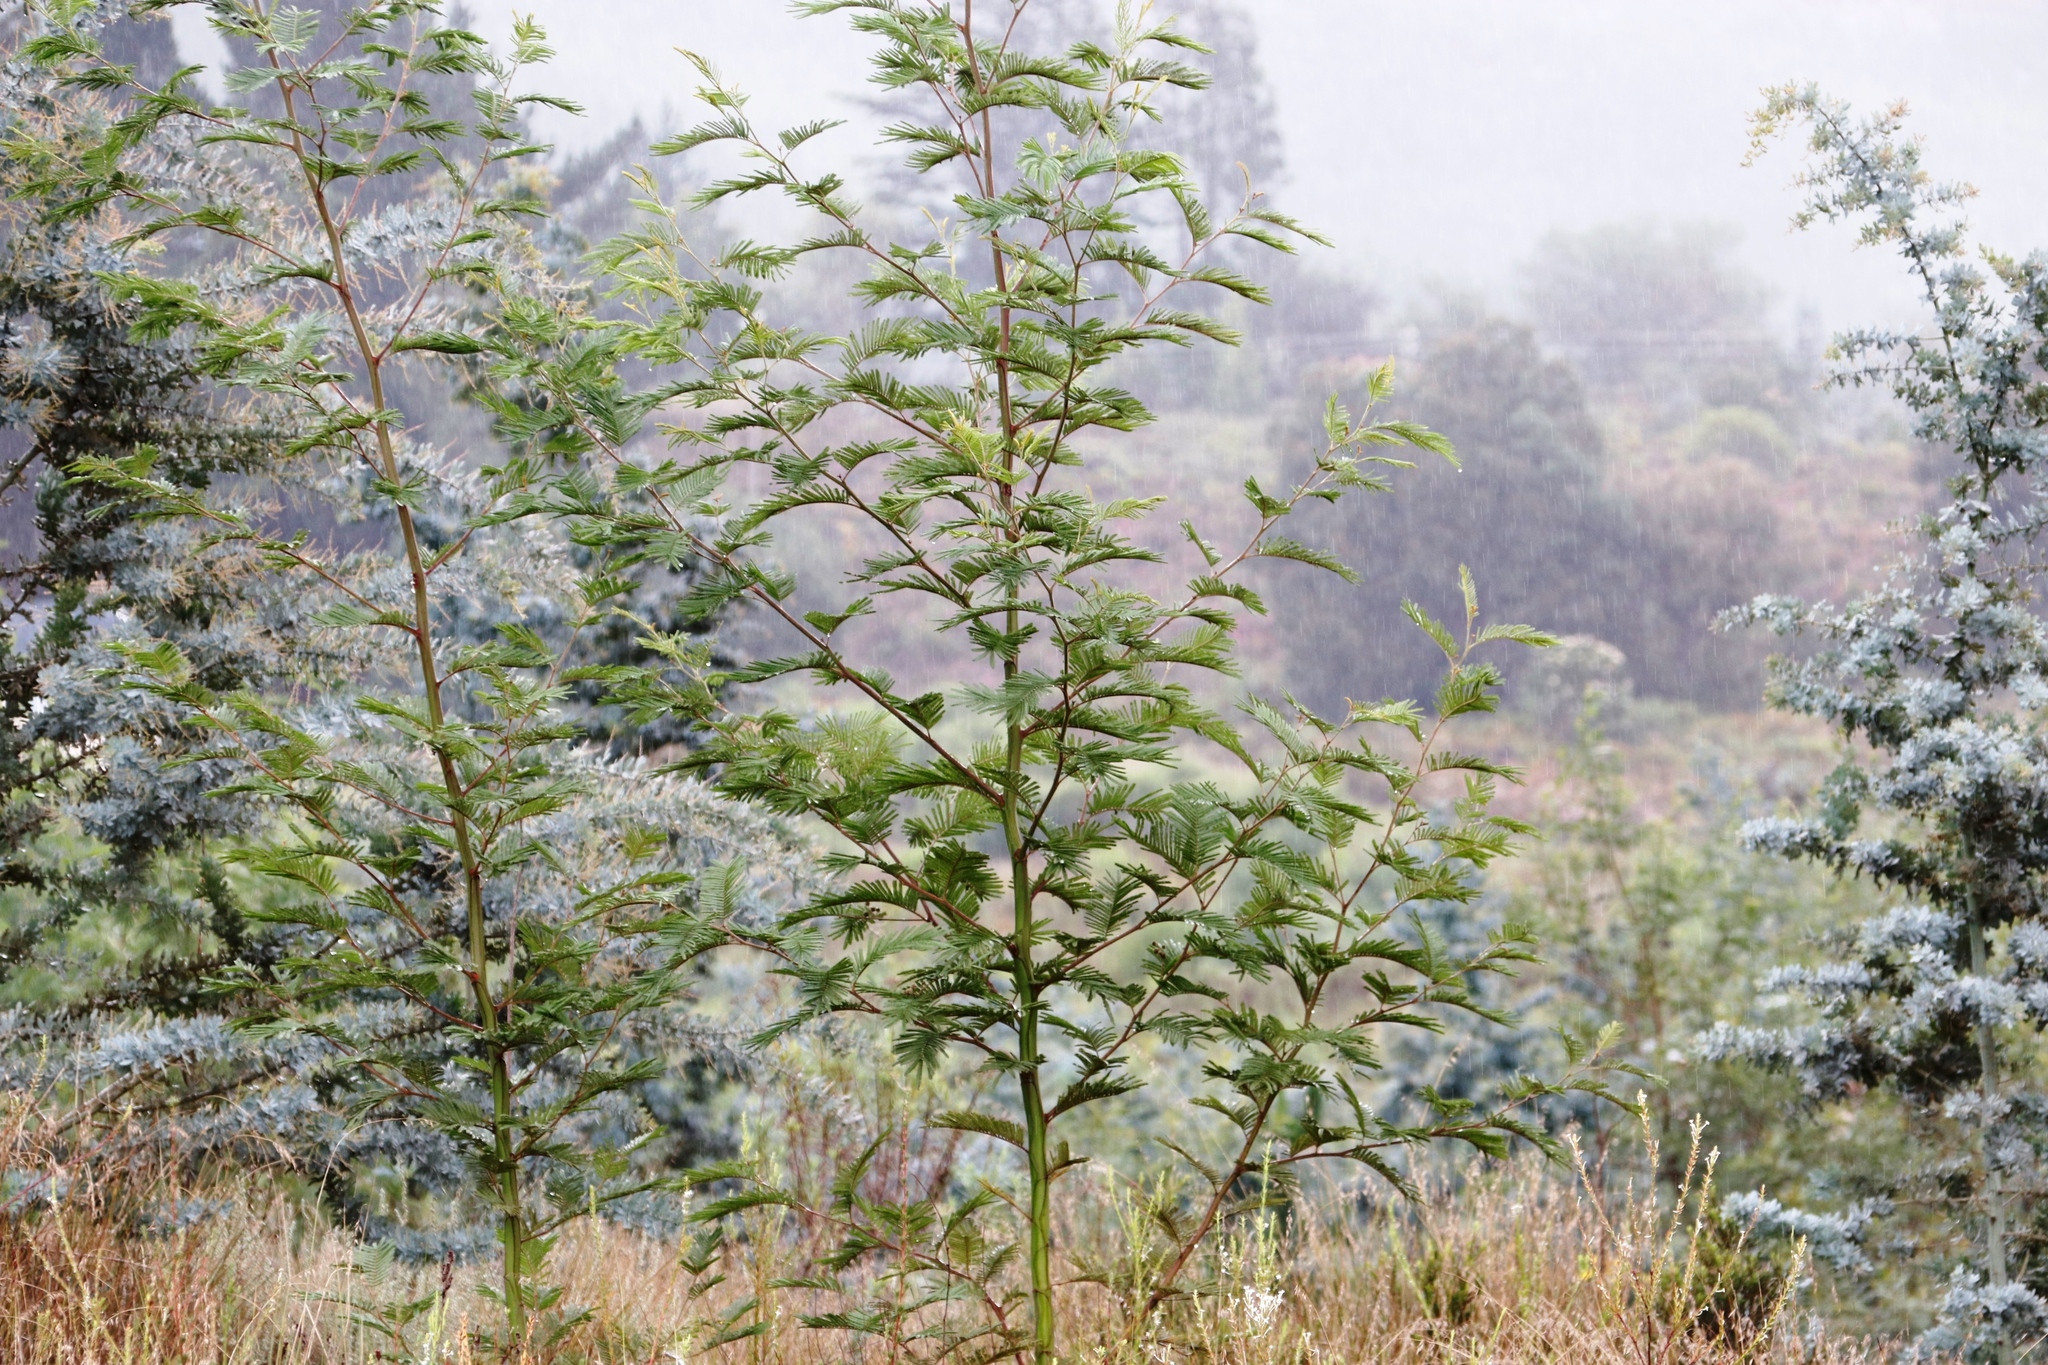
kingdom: Plantae
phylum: Tracheophyta
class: Magnoliopsida
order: Fabales
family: Fabaceae
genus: Acacia
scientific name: Acacia mearnsii
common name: Black wattle
